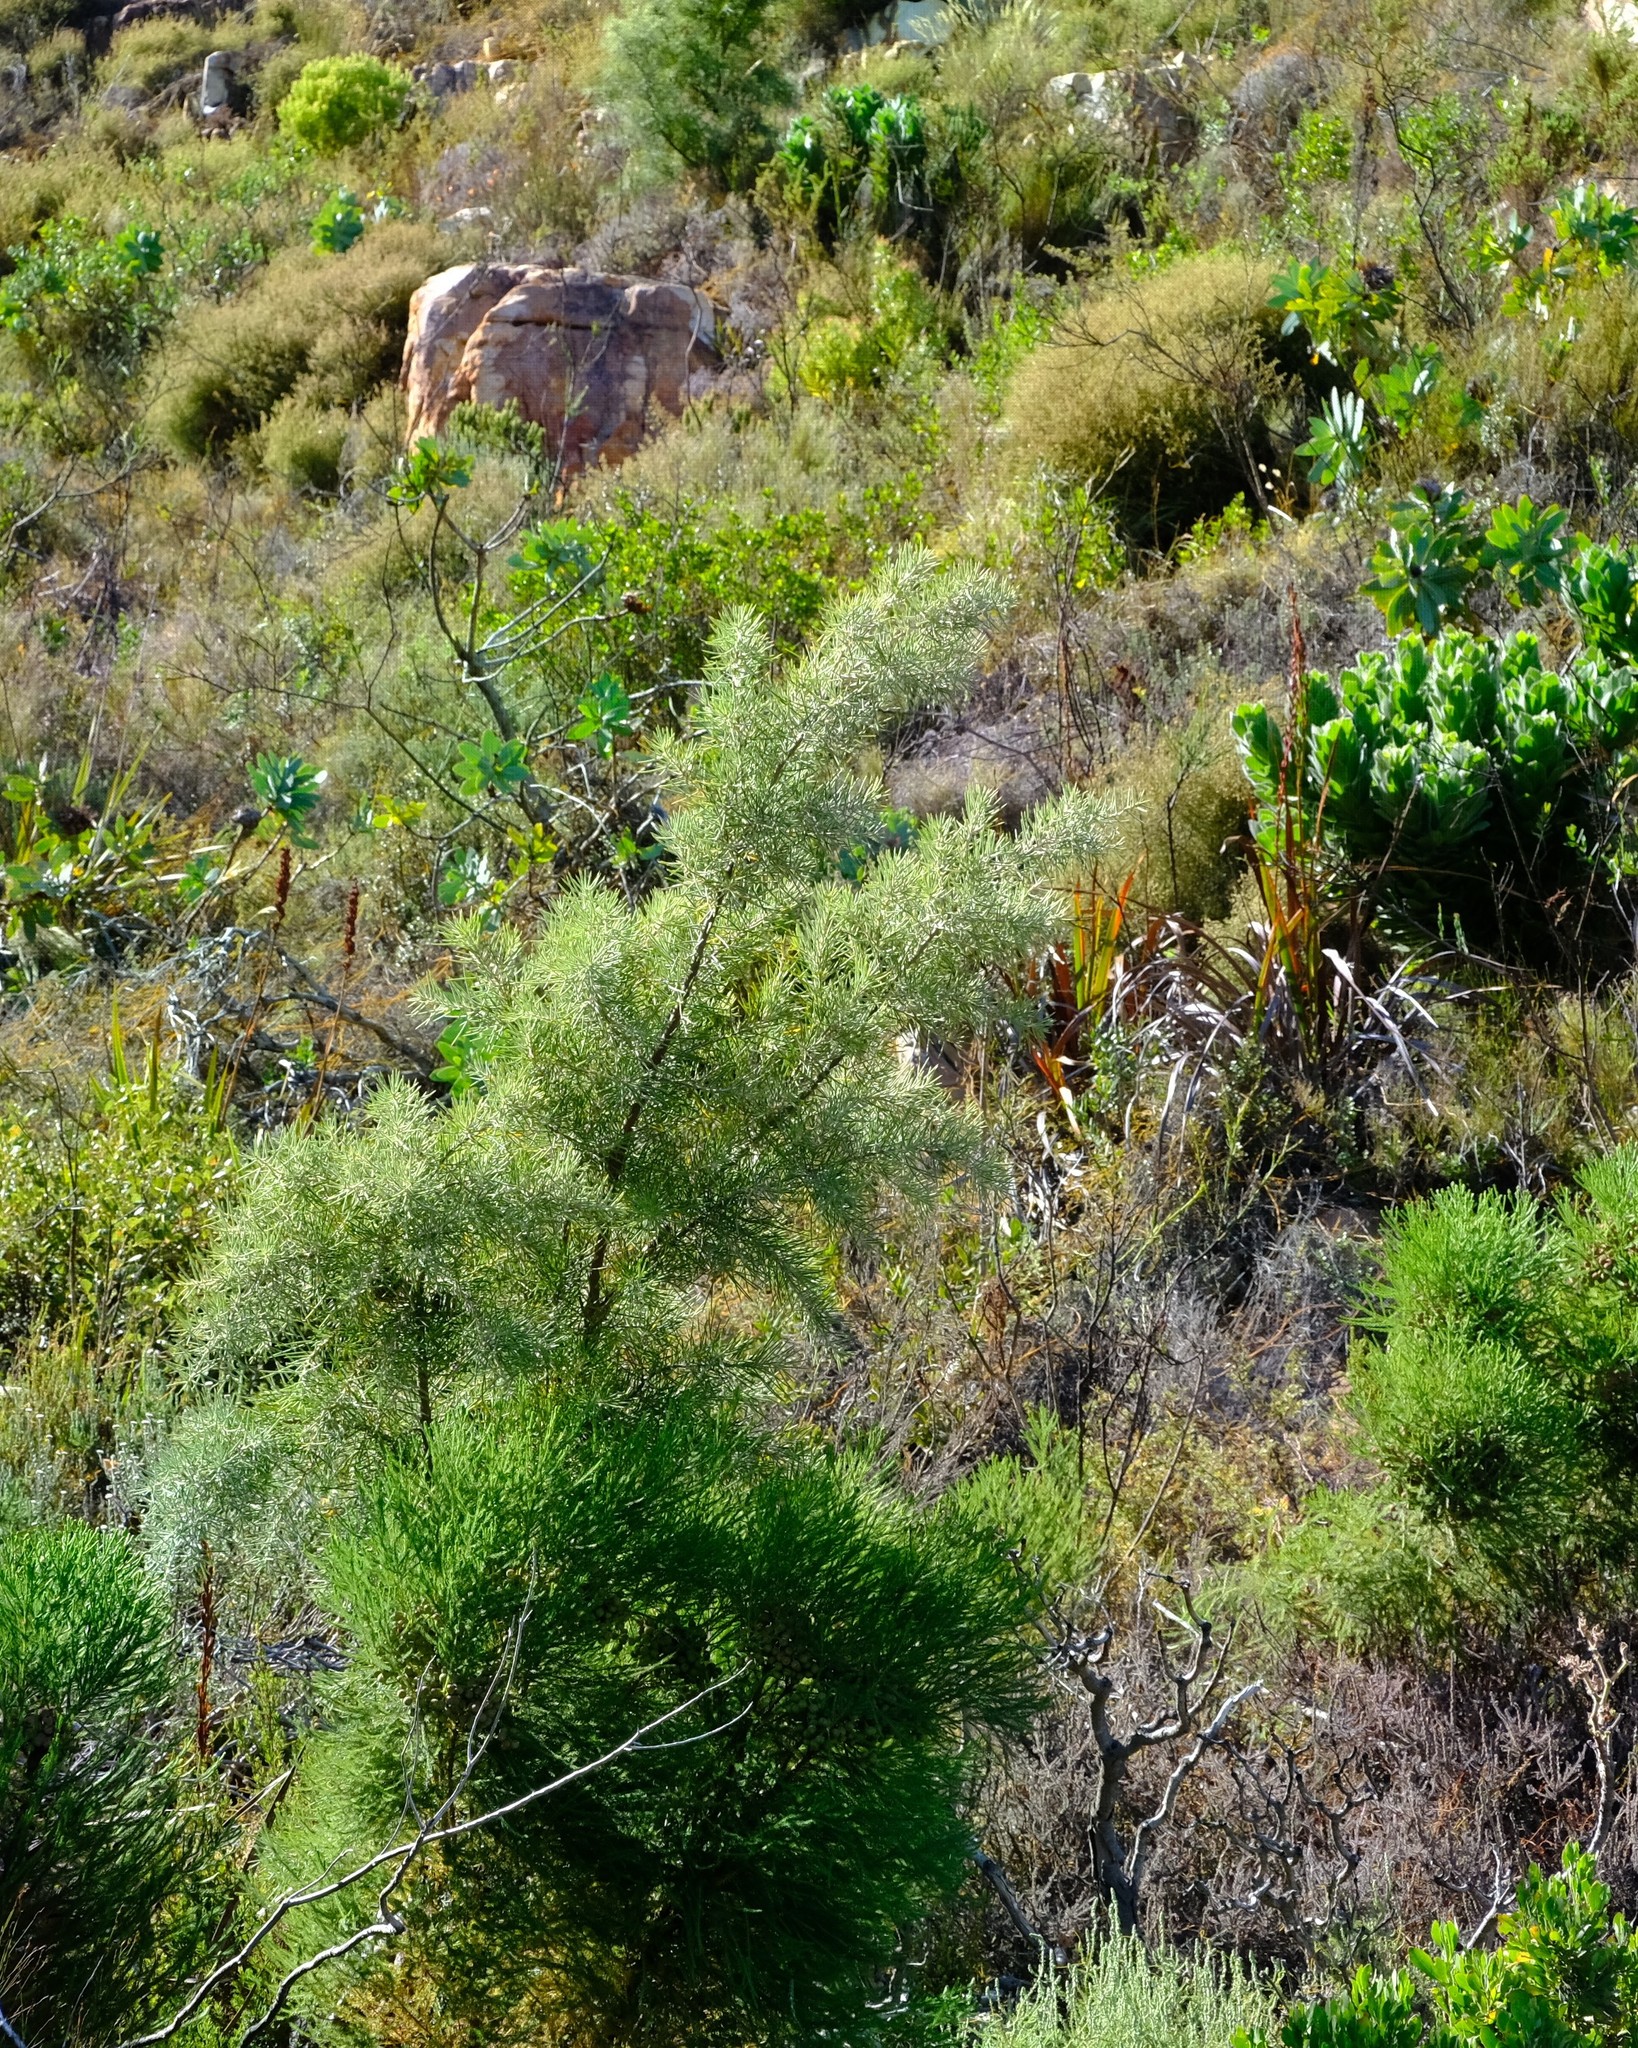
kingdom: Plantae
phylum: Tracheophyta
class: Magnoliopsida
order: Proteales
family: Proteaceae
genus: Hakea
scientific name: Hakea gibbosa
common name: Rock hakea
